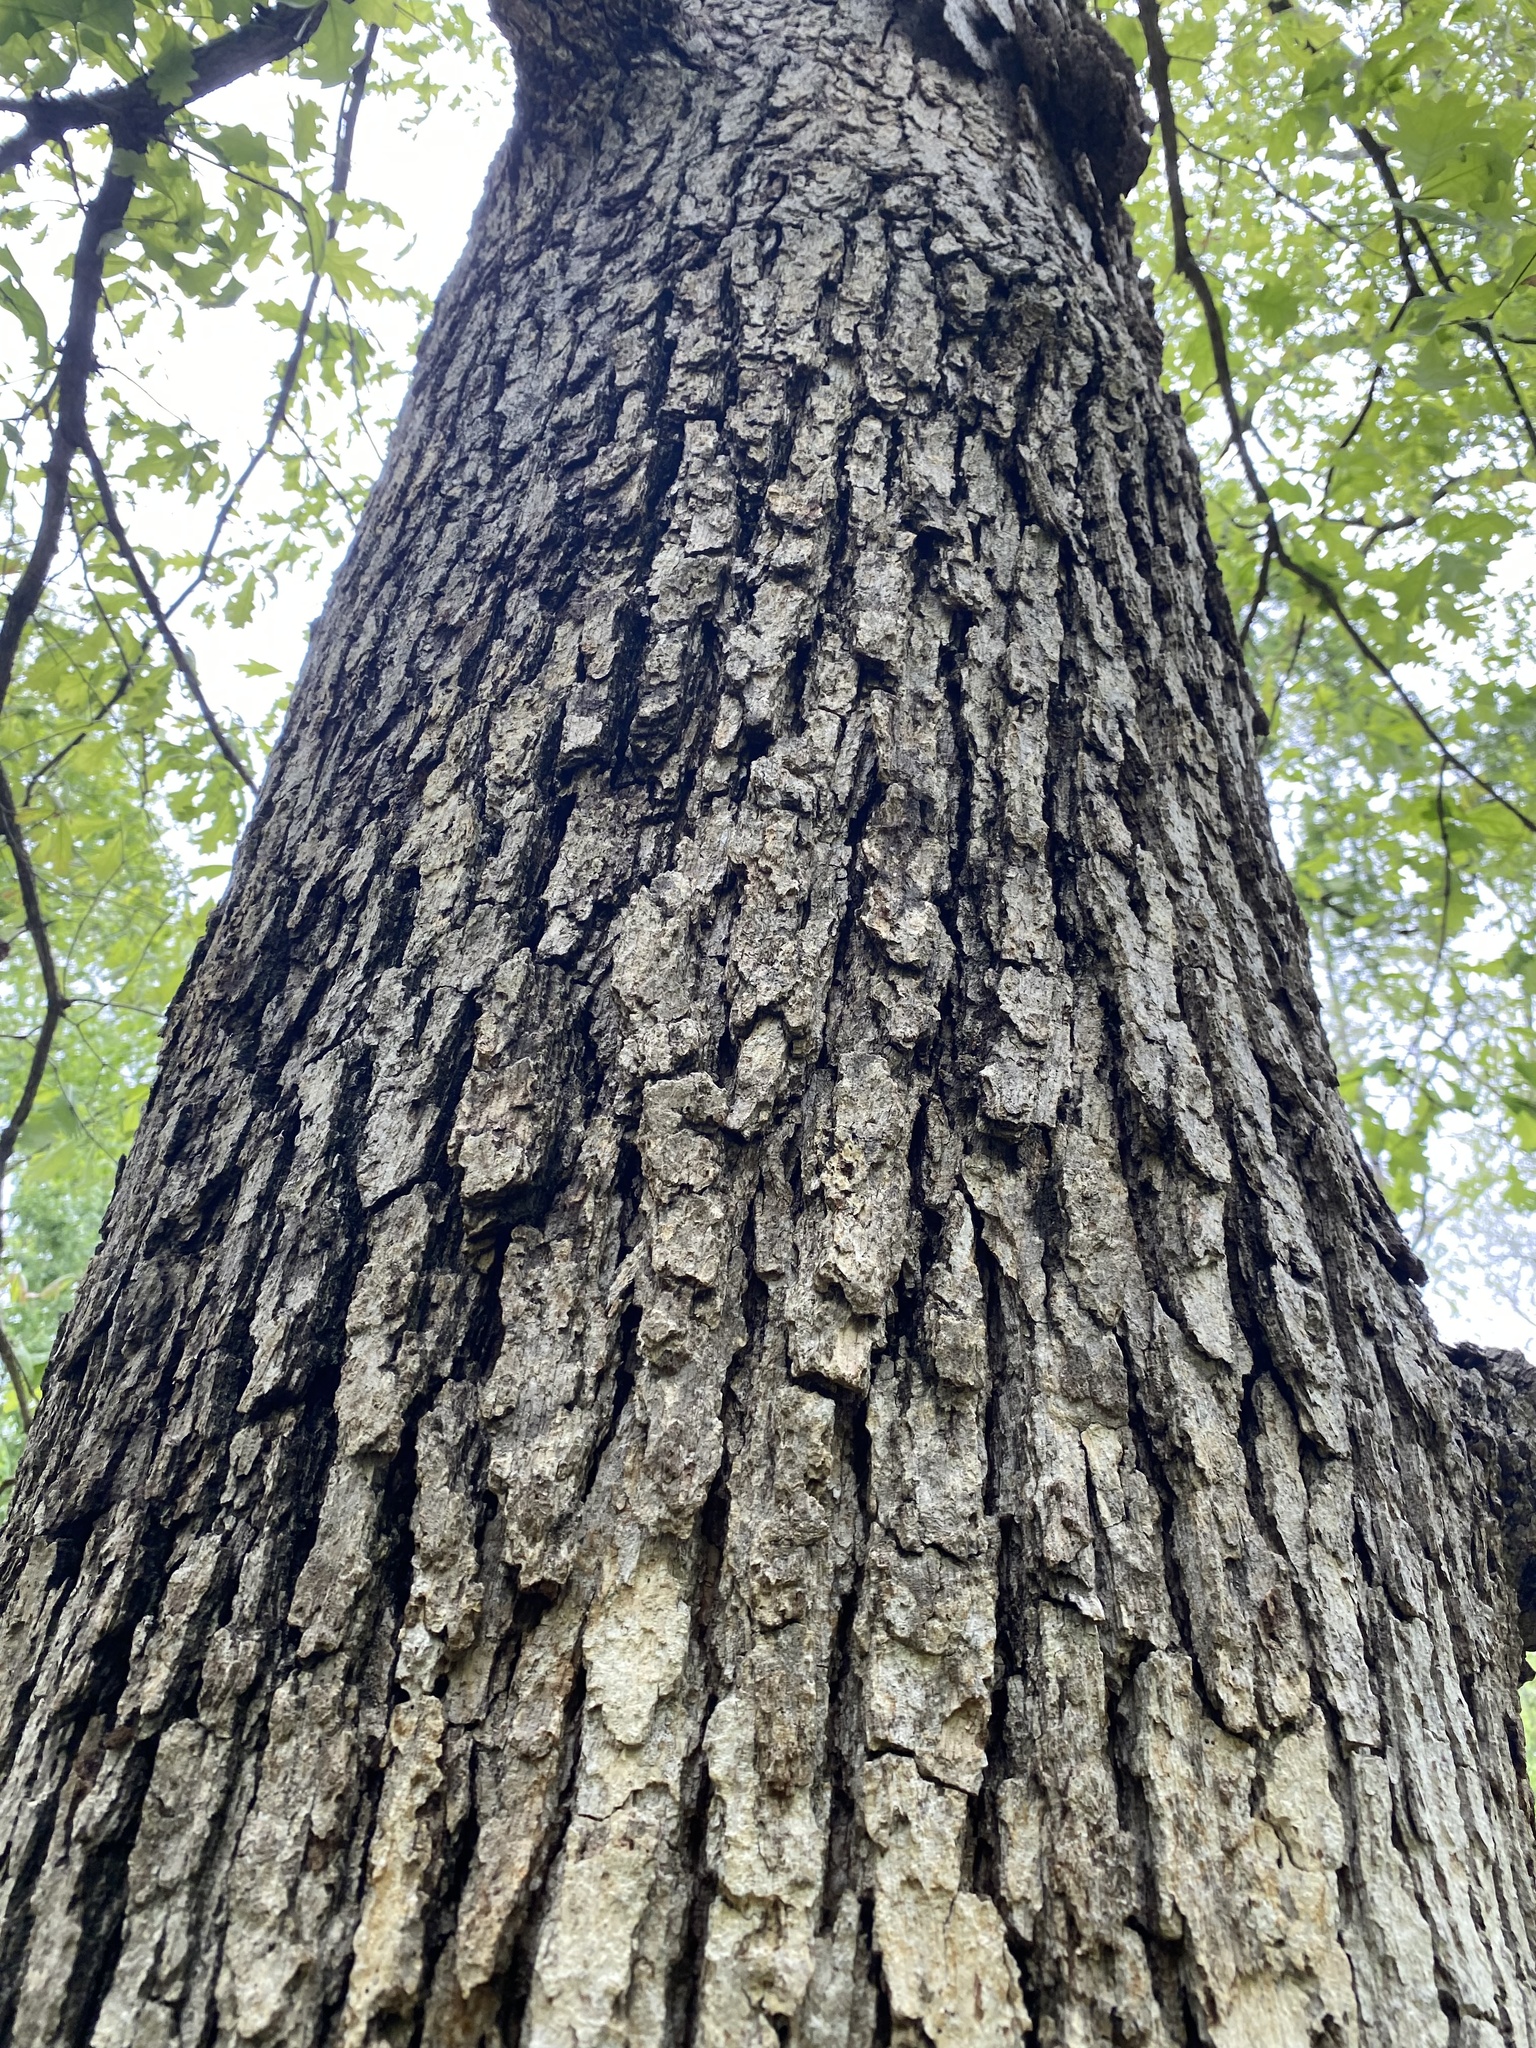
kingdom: Plantae
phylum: Tracheophyta
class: Magnoliopsida
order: Fagales
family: Fagaceae
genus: Quercus
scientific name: Quercus alba
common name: White oak
